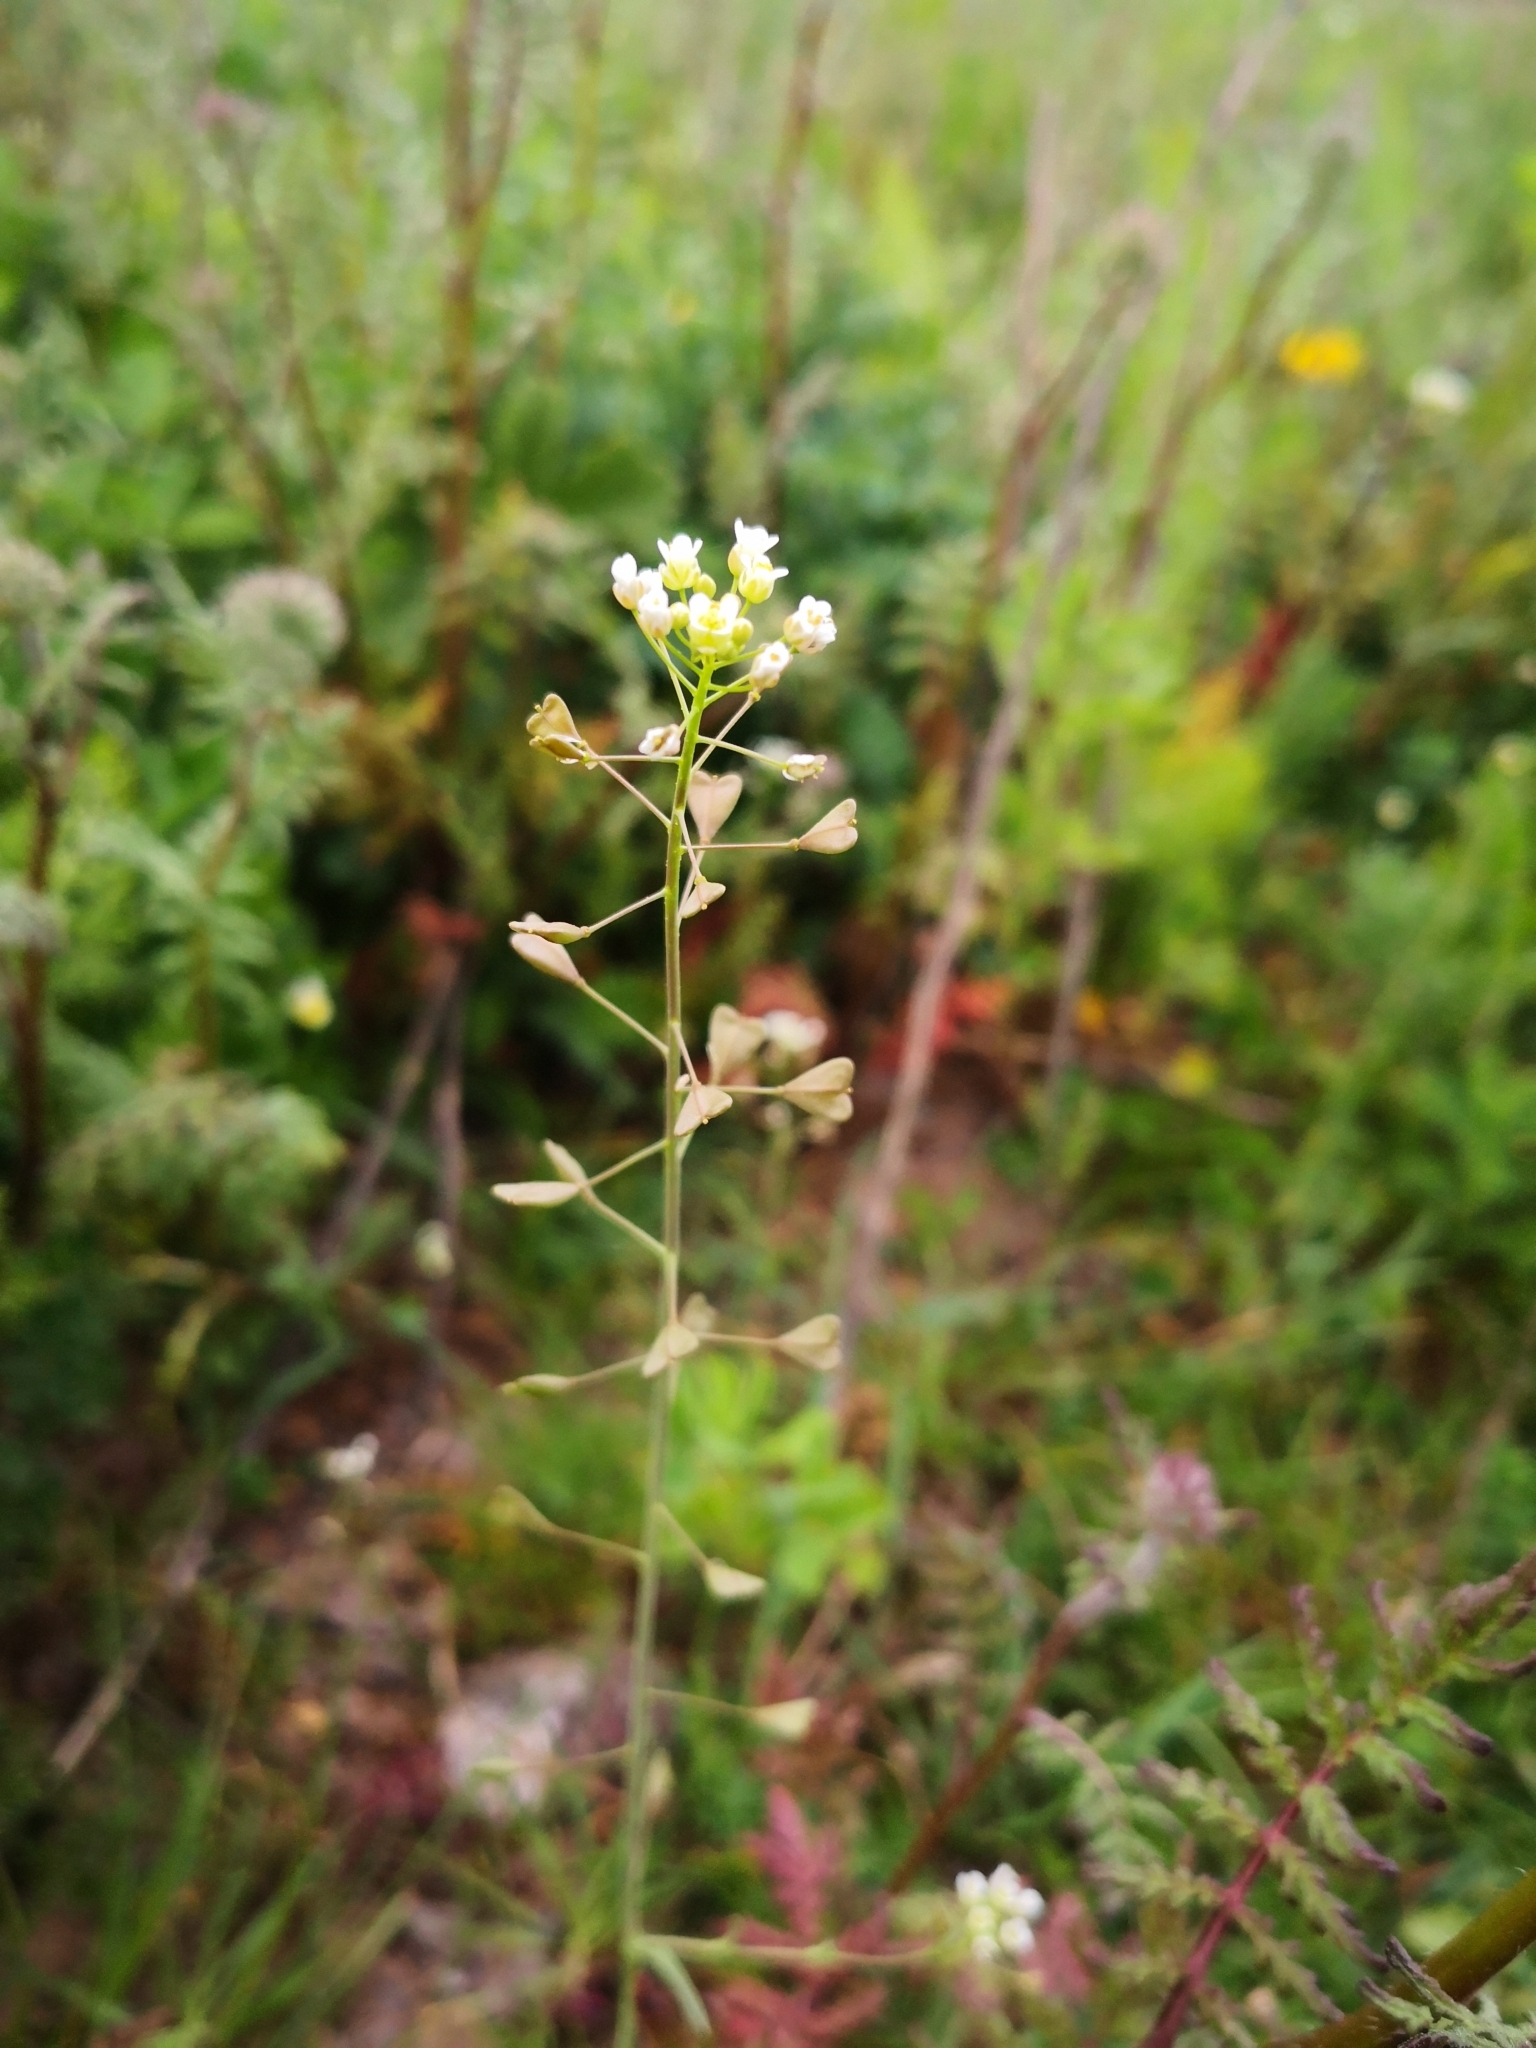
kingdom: Plantae
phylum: Tracheophyta
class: Magnoliopsida
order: Brassicales
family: Brassicaceae
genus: Capsella
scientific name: Capsella bursa-pastoris
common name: Shepherd's purse
